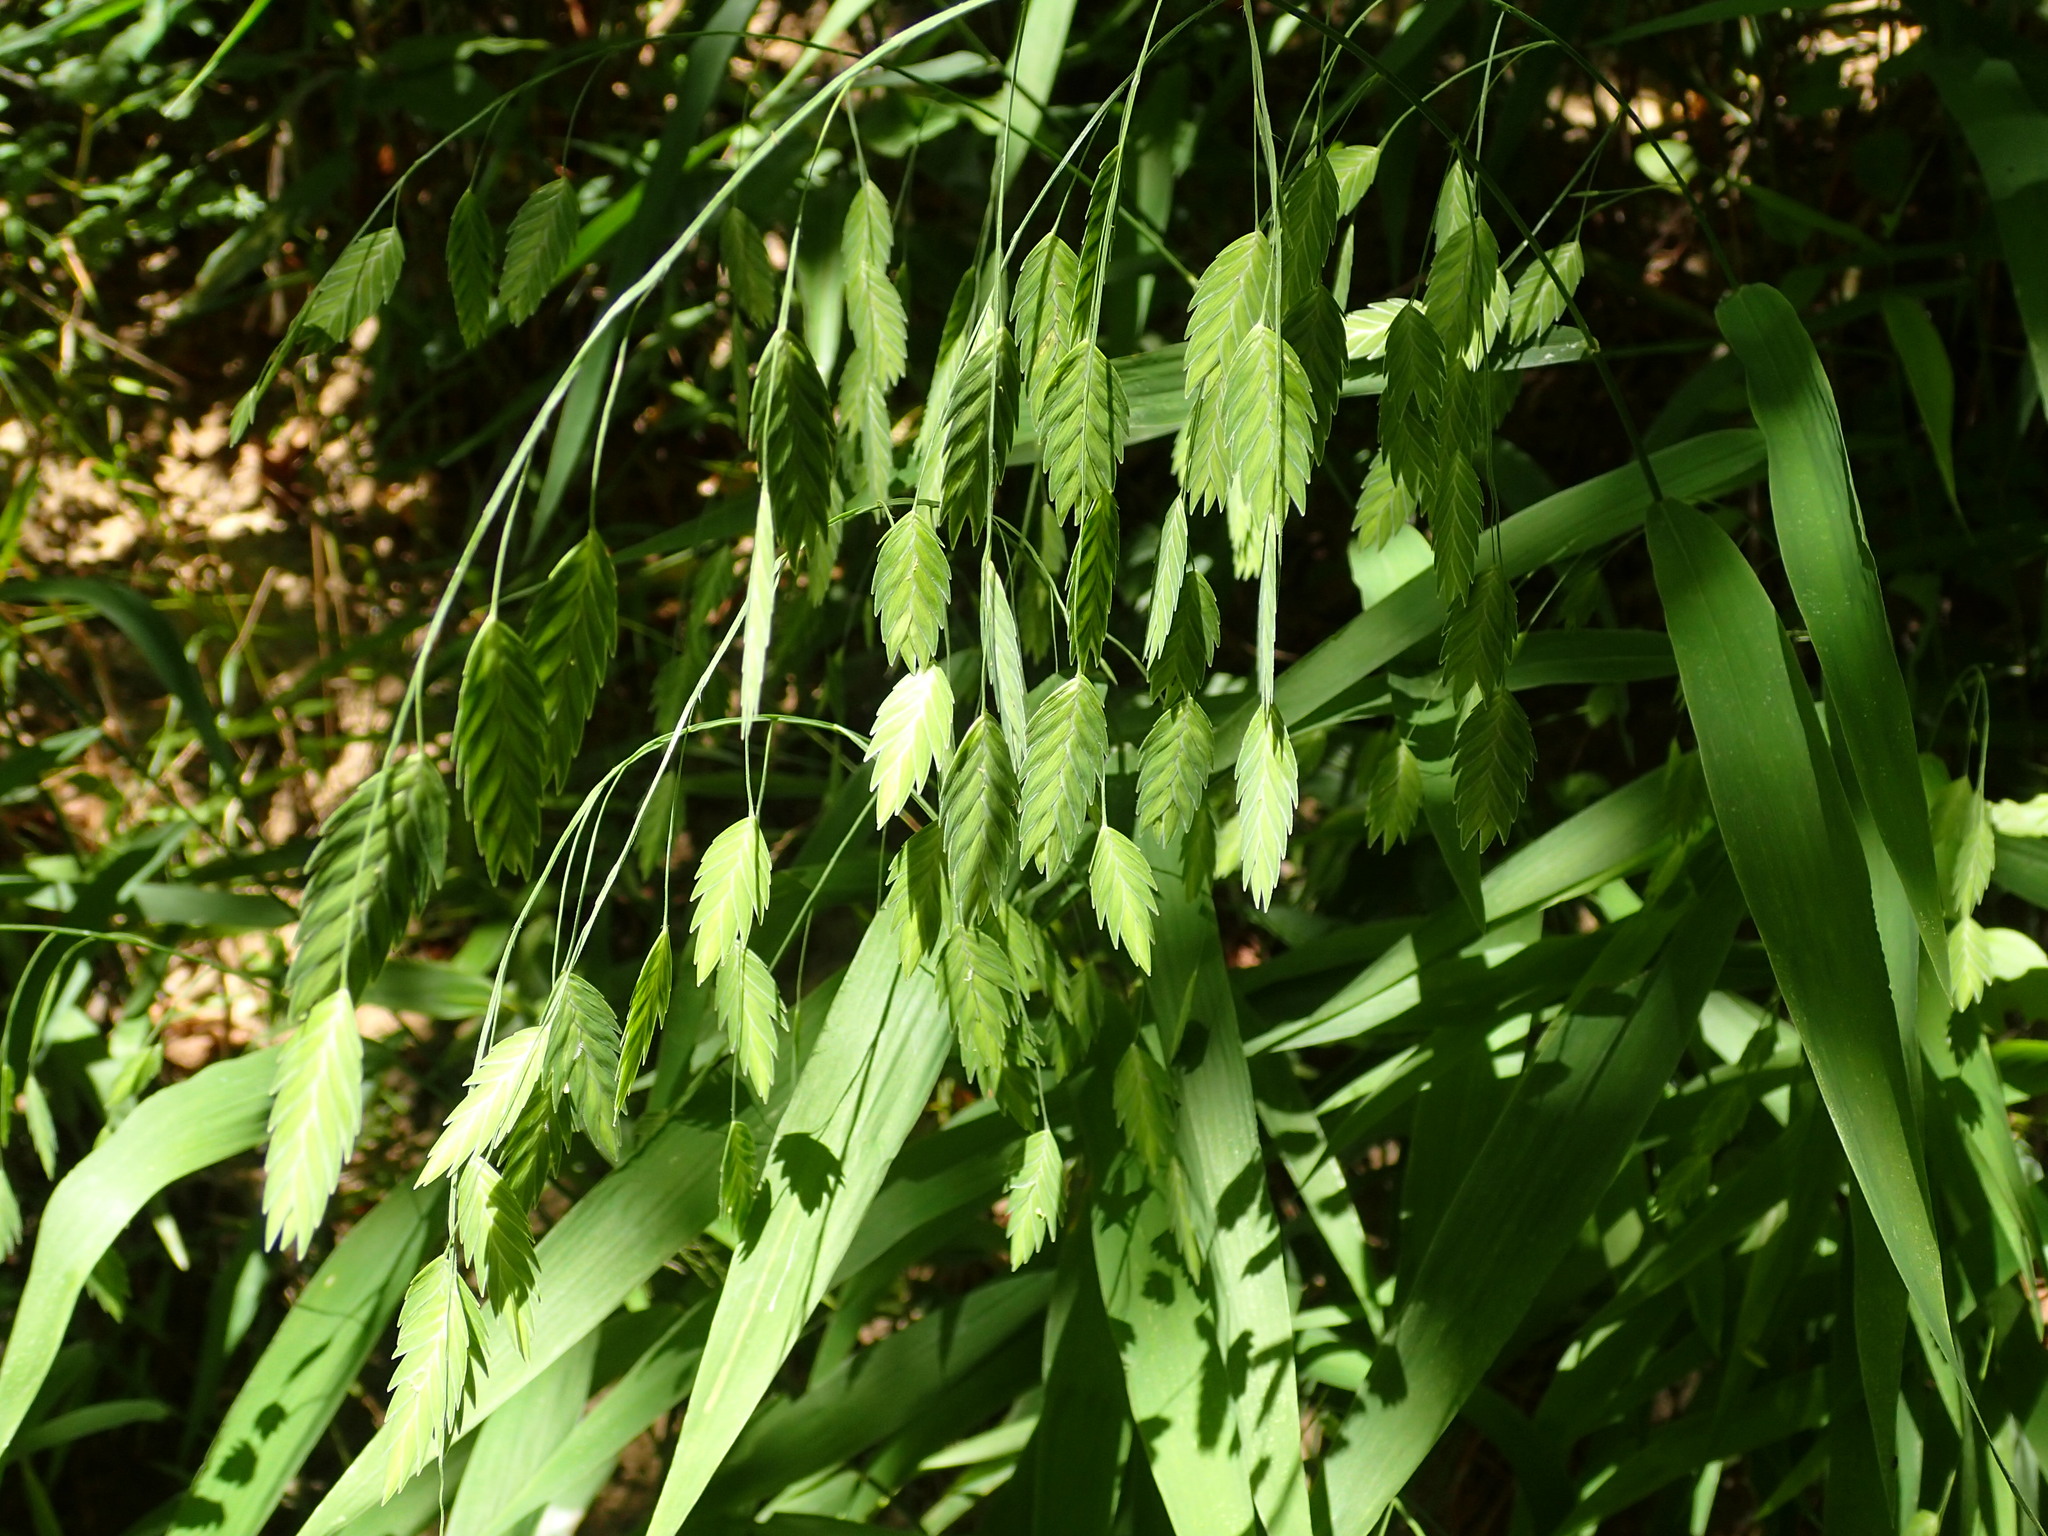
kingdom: Plantae
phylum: Tracheophyta
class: Liliopsida
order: Poales
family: Poaceae
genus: Chasmanthium
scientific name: Chasmanthium latifolium
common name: Broad-leaved chasmanthium
